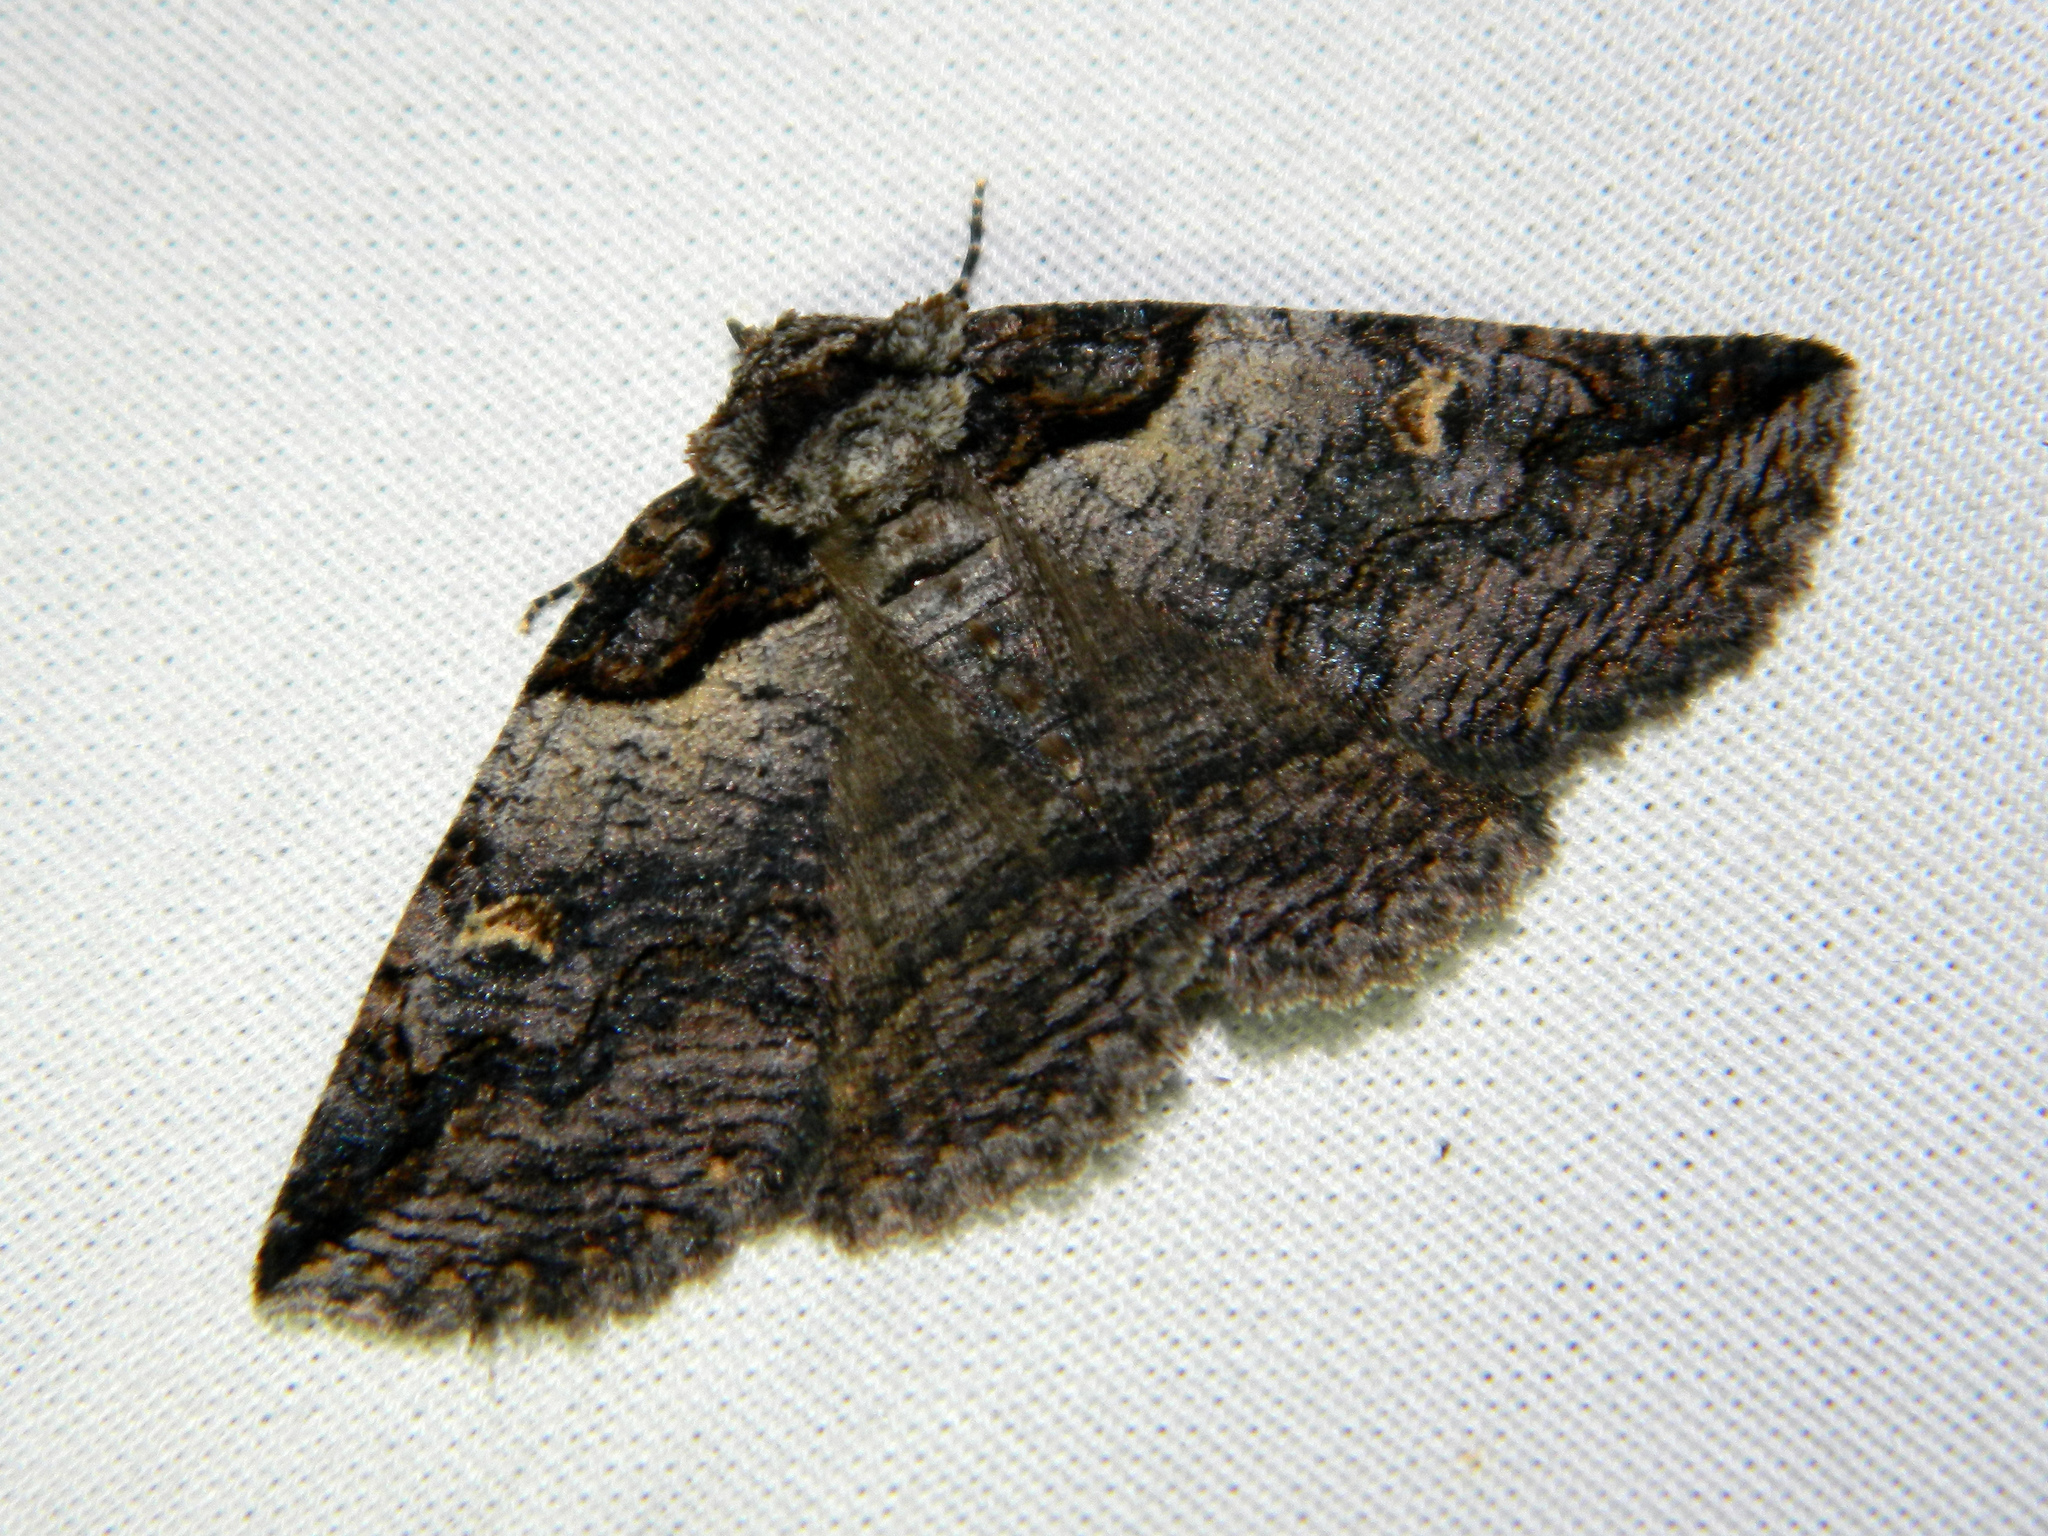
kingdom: Animalia
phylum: Arthropoda
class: Insecta
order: Lepidoptera
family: Erebidae
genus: Zale
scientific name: Zale intenta
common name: Intent zale moth
